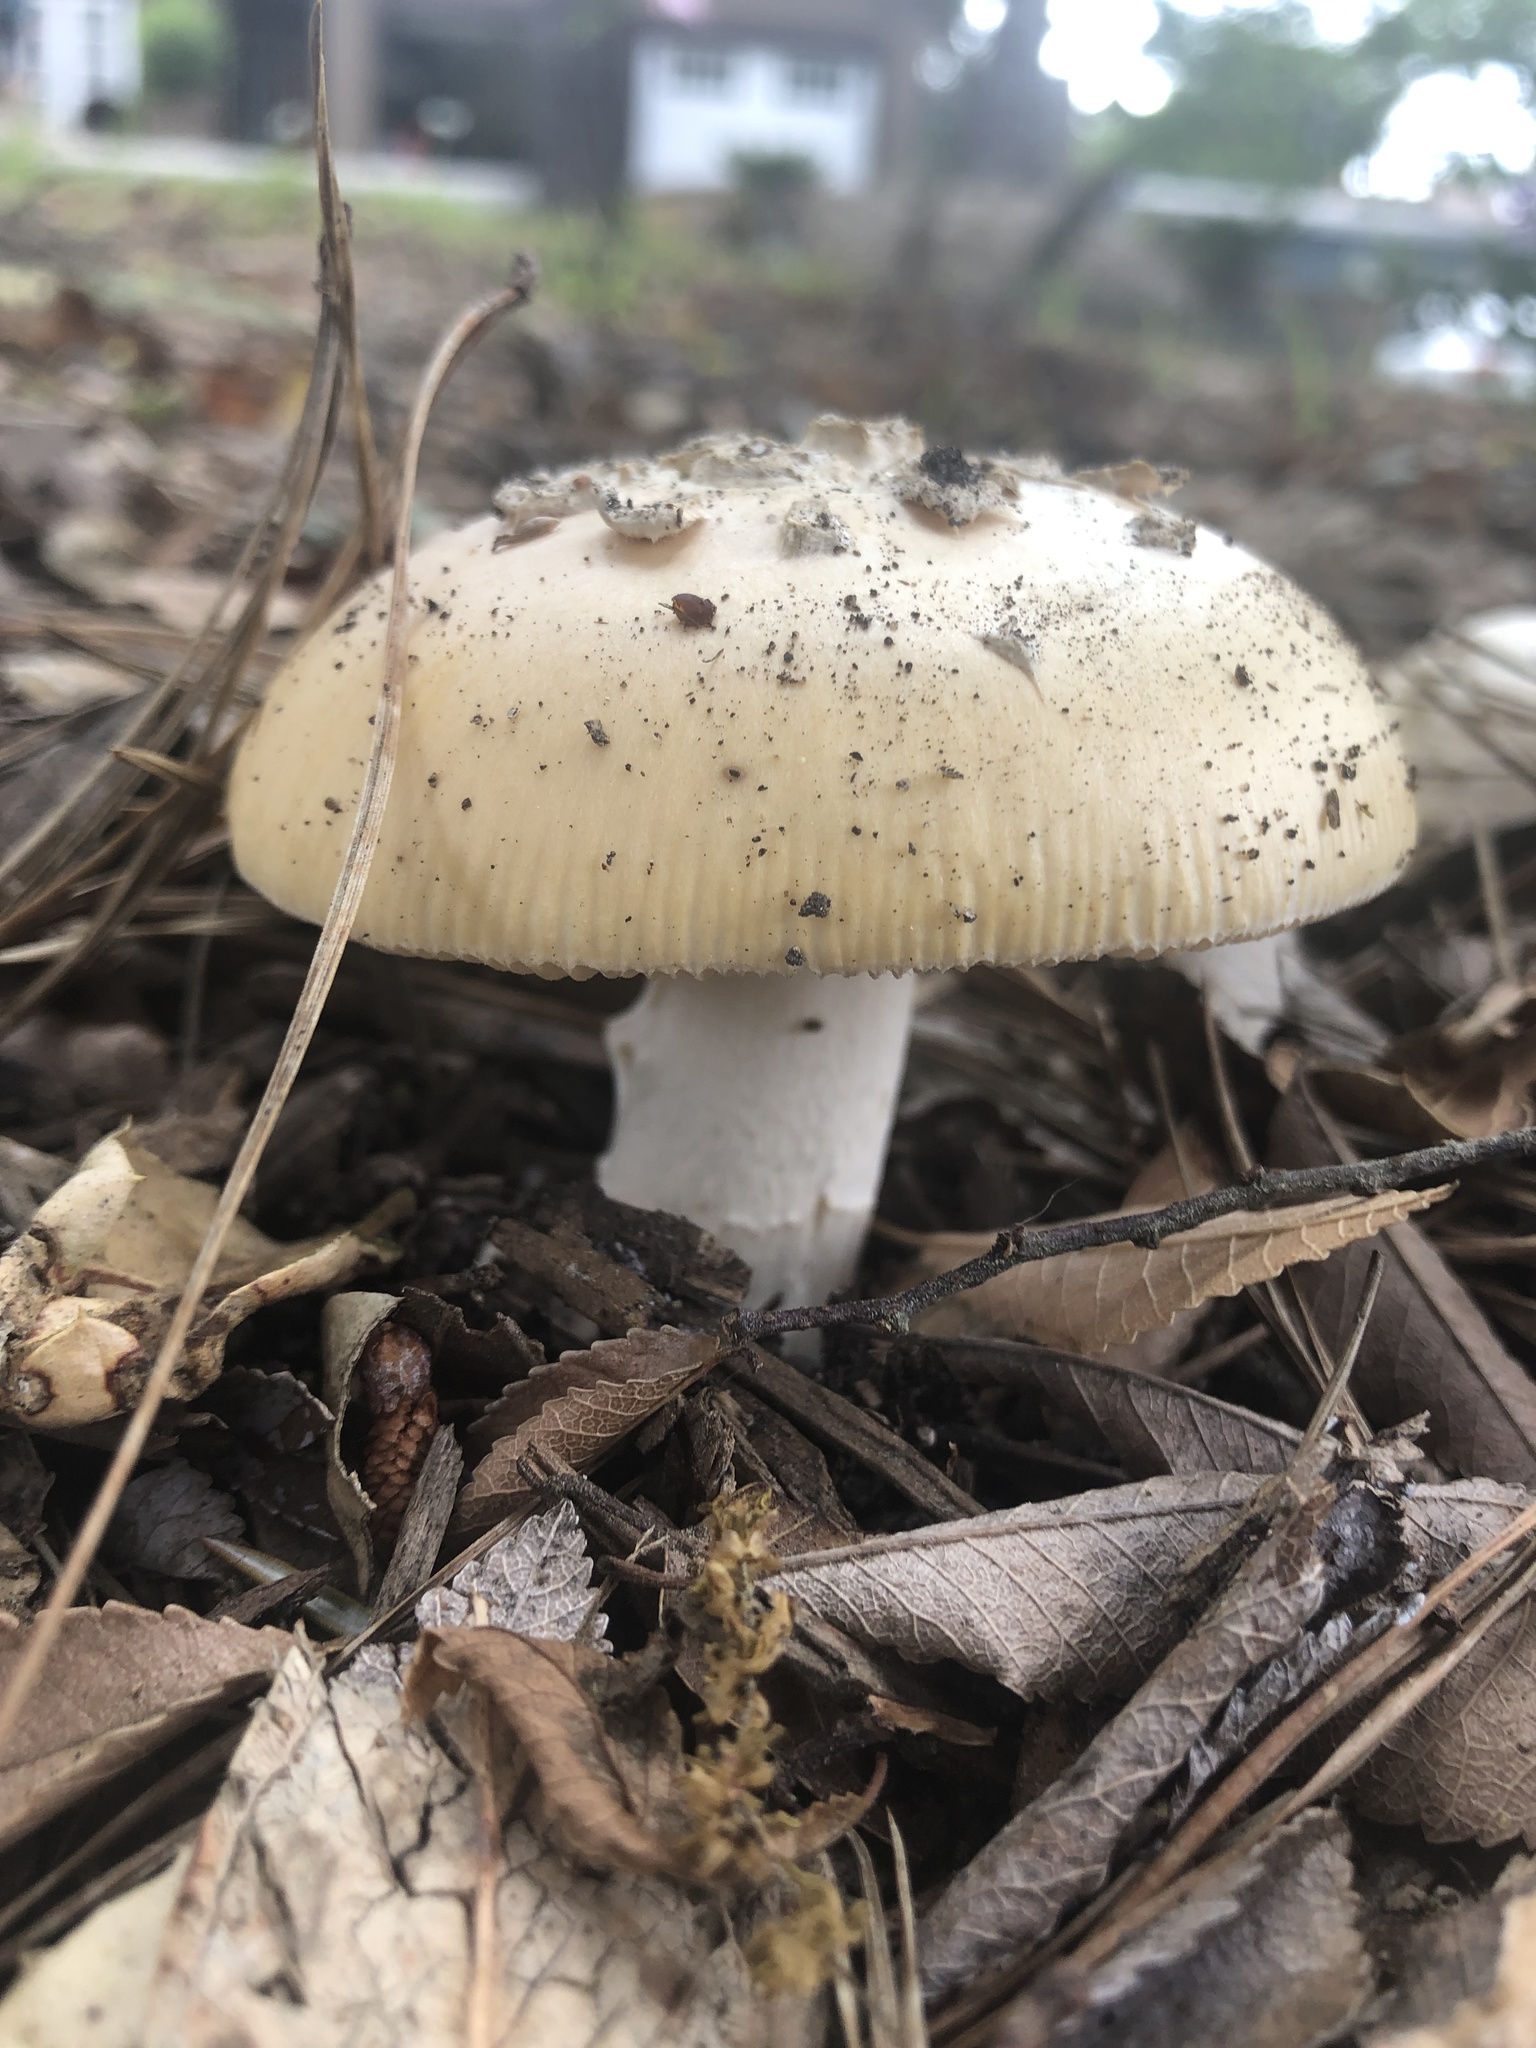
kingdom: Fungi
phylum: Basidiomycota
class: Agaricomycetes
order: Agaricales
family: Amanitaceae
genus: Amanita
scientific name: Amanita velosa
